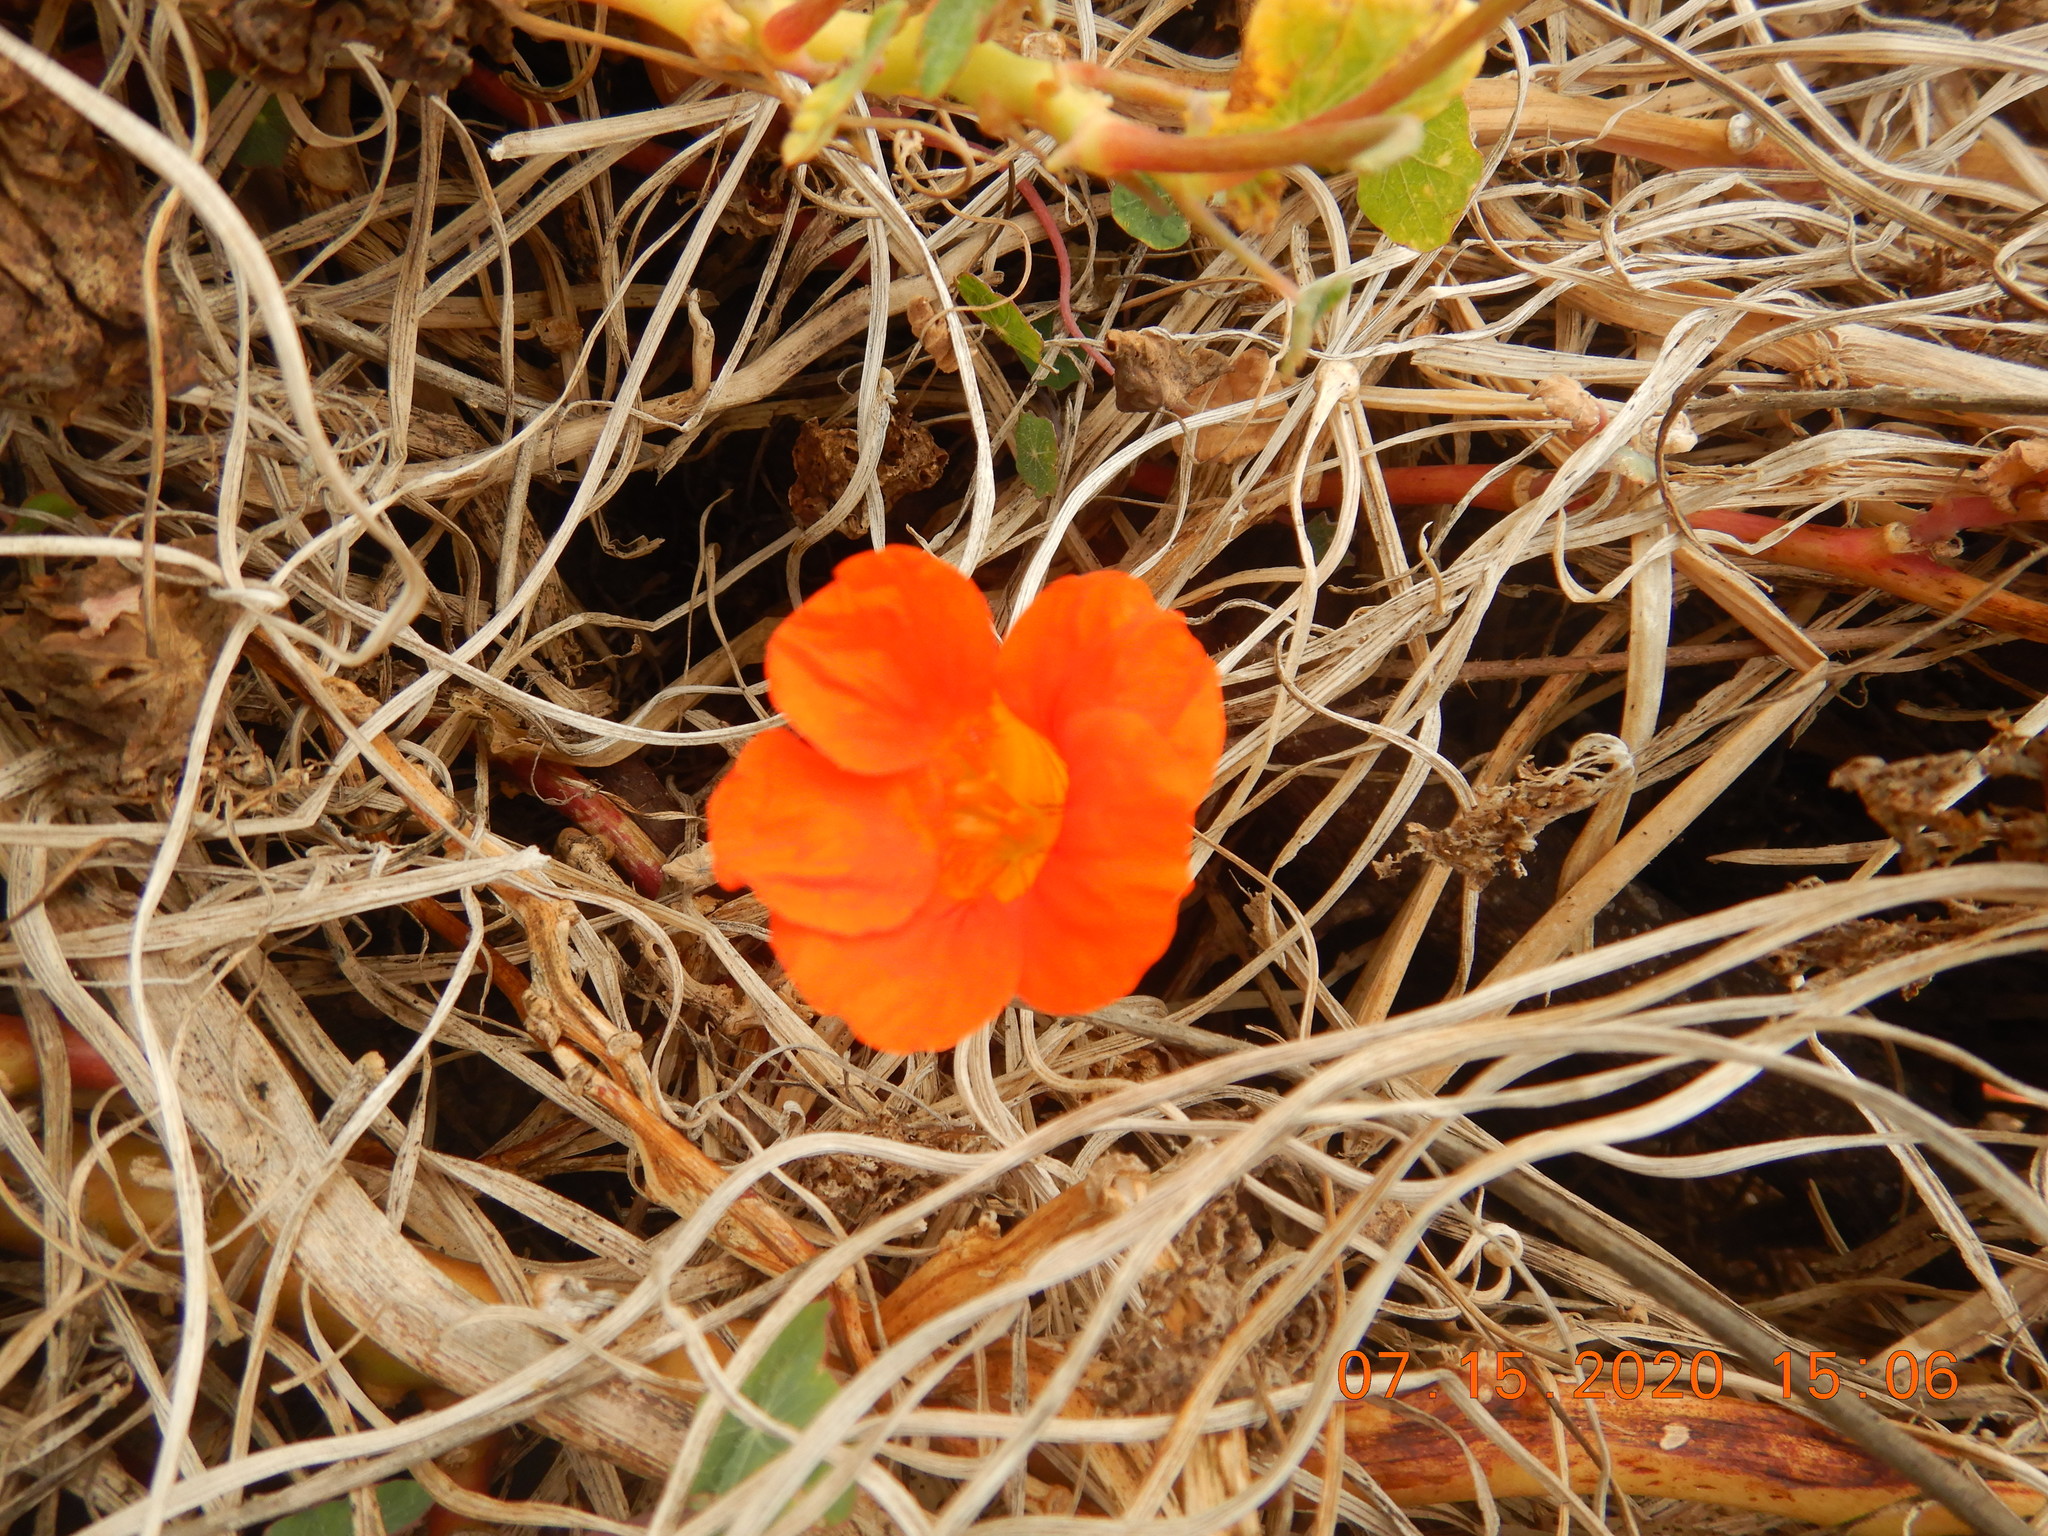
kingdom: Plantae
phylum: Tracheophyta
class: Magnoliopsida
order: Brassicales
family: Tropaeolaceae
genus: Tropaeolum
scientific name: Tropaeolum majus
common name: Nasturtium
